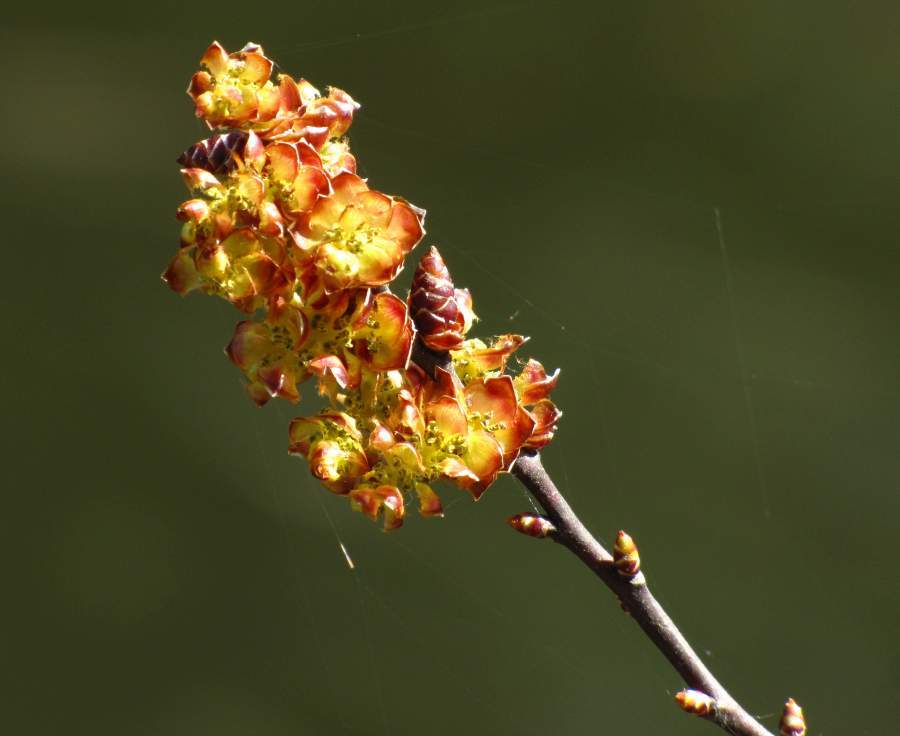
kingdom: Plantae
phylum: Tracheophyta
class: Magnoliopsida
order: Fagales
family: Myricaceae
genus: Myrica
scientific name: Myrica gale
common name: Sweet gale
